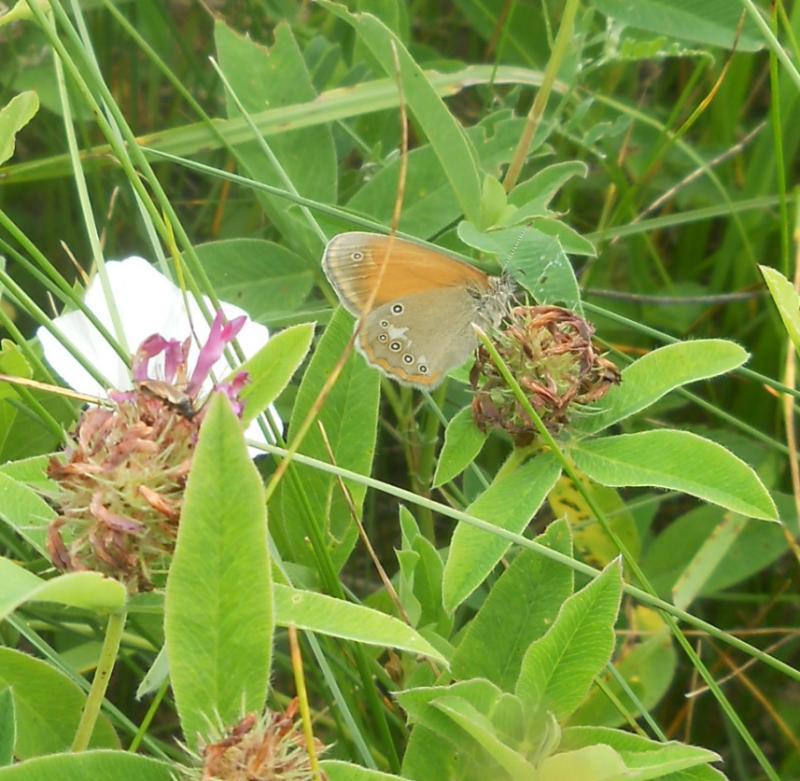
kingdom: Animalia
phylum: Arthropoda
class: Insecta
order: Lepidoptera
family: Nymphalidae
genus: Coenonympha
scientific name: Coenonympha iphis
